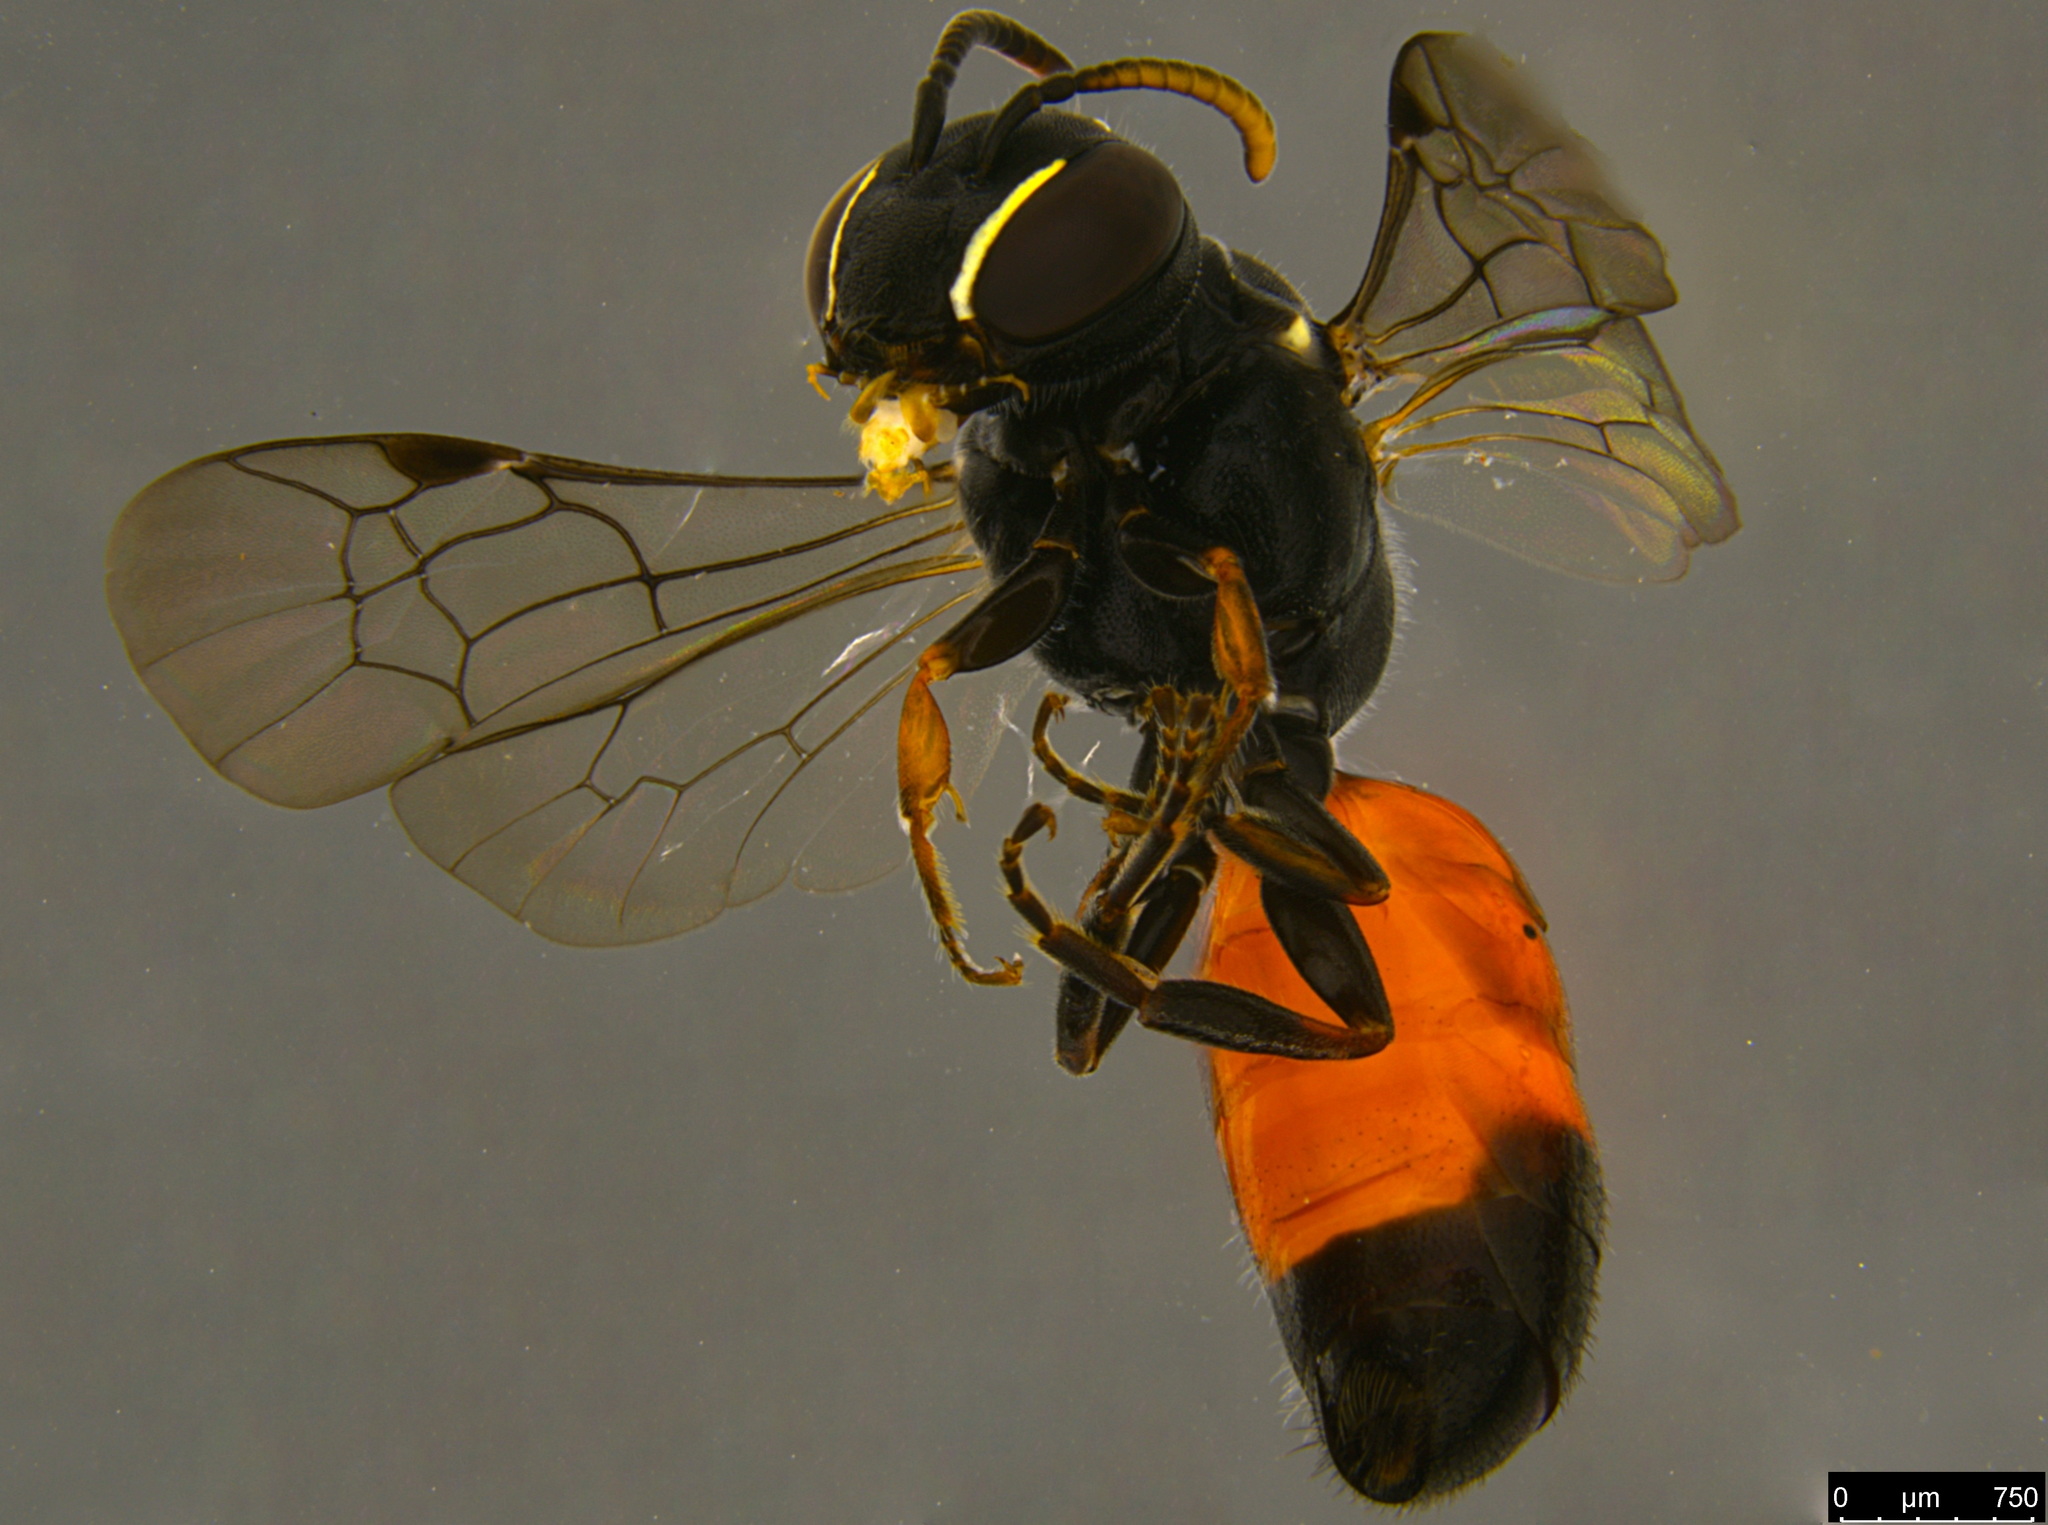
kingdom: Animalia
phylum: Arthropoda
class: Insecta
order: Hymenoptera
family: Colletidae
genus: Hylaeus
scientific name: Hylaeus littleri
